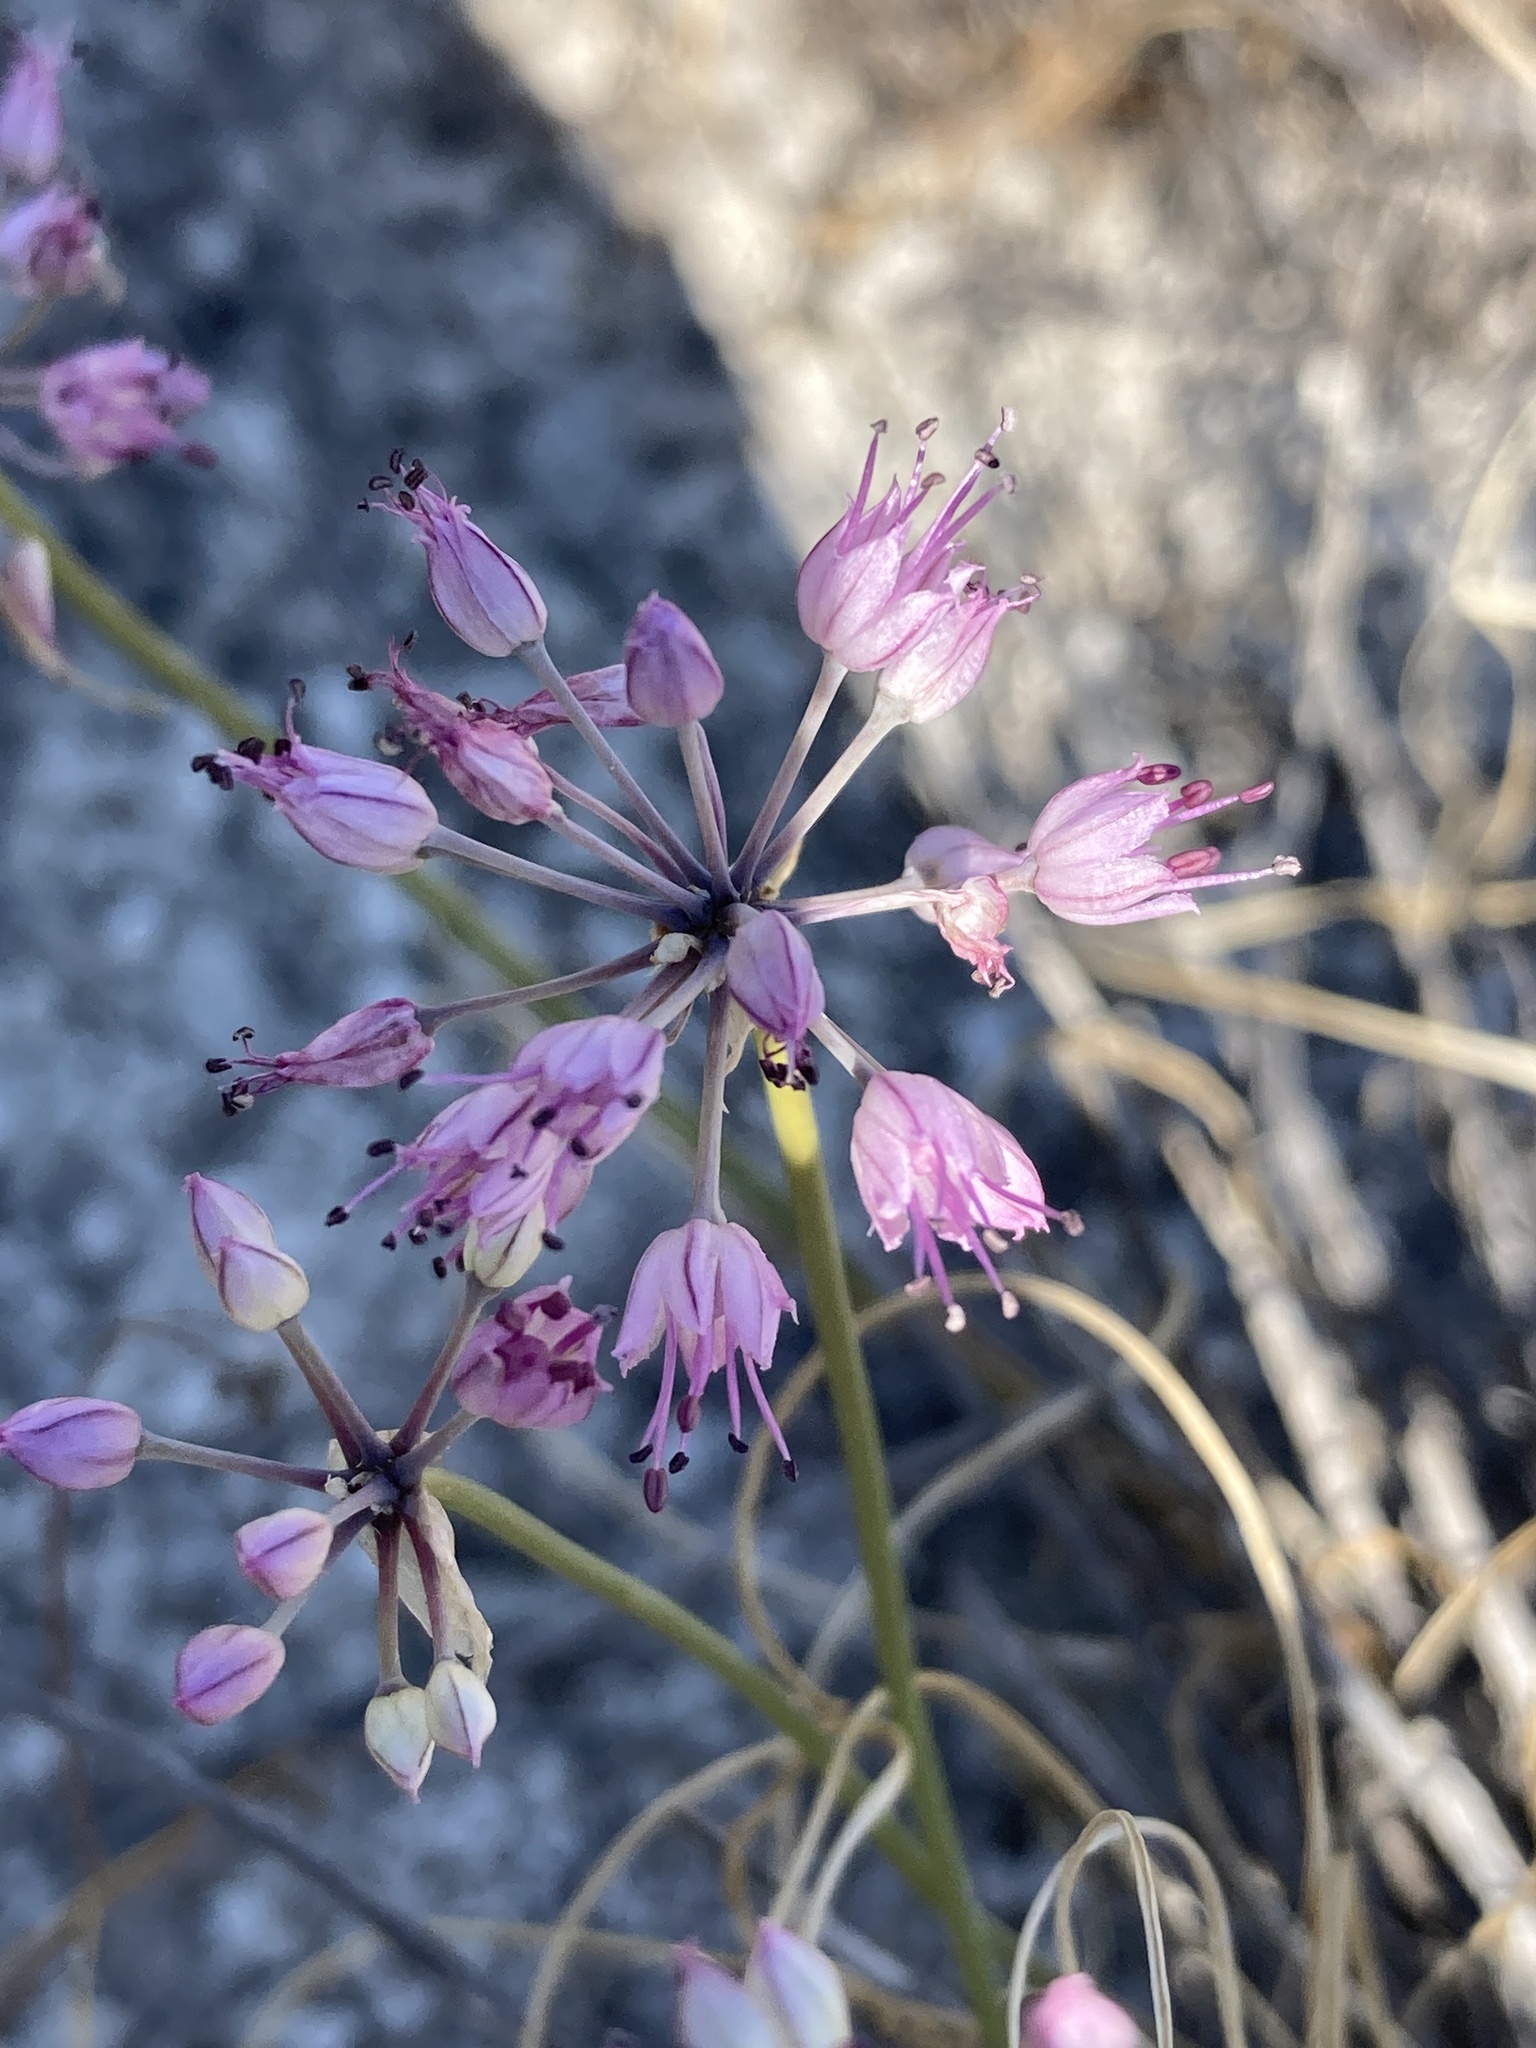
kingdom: Plantae
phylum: Tracheophyta
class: Liliopsida
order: Asparagales
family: Amaryllidaceae
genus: Allium
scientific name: Allium cretaceum
